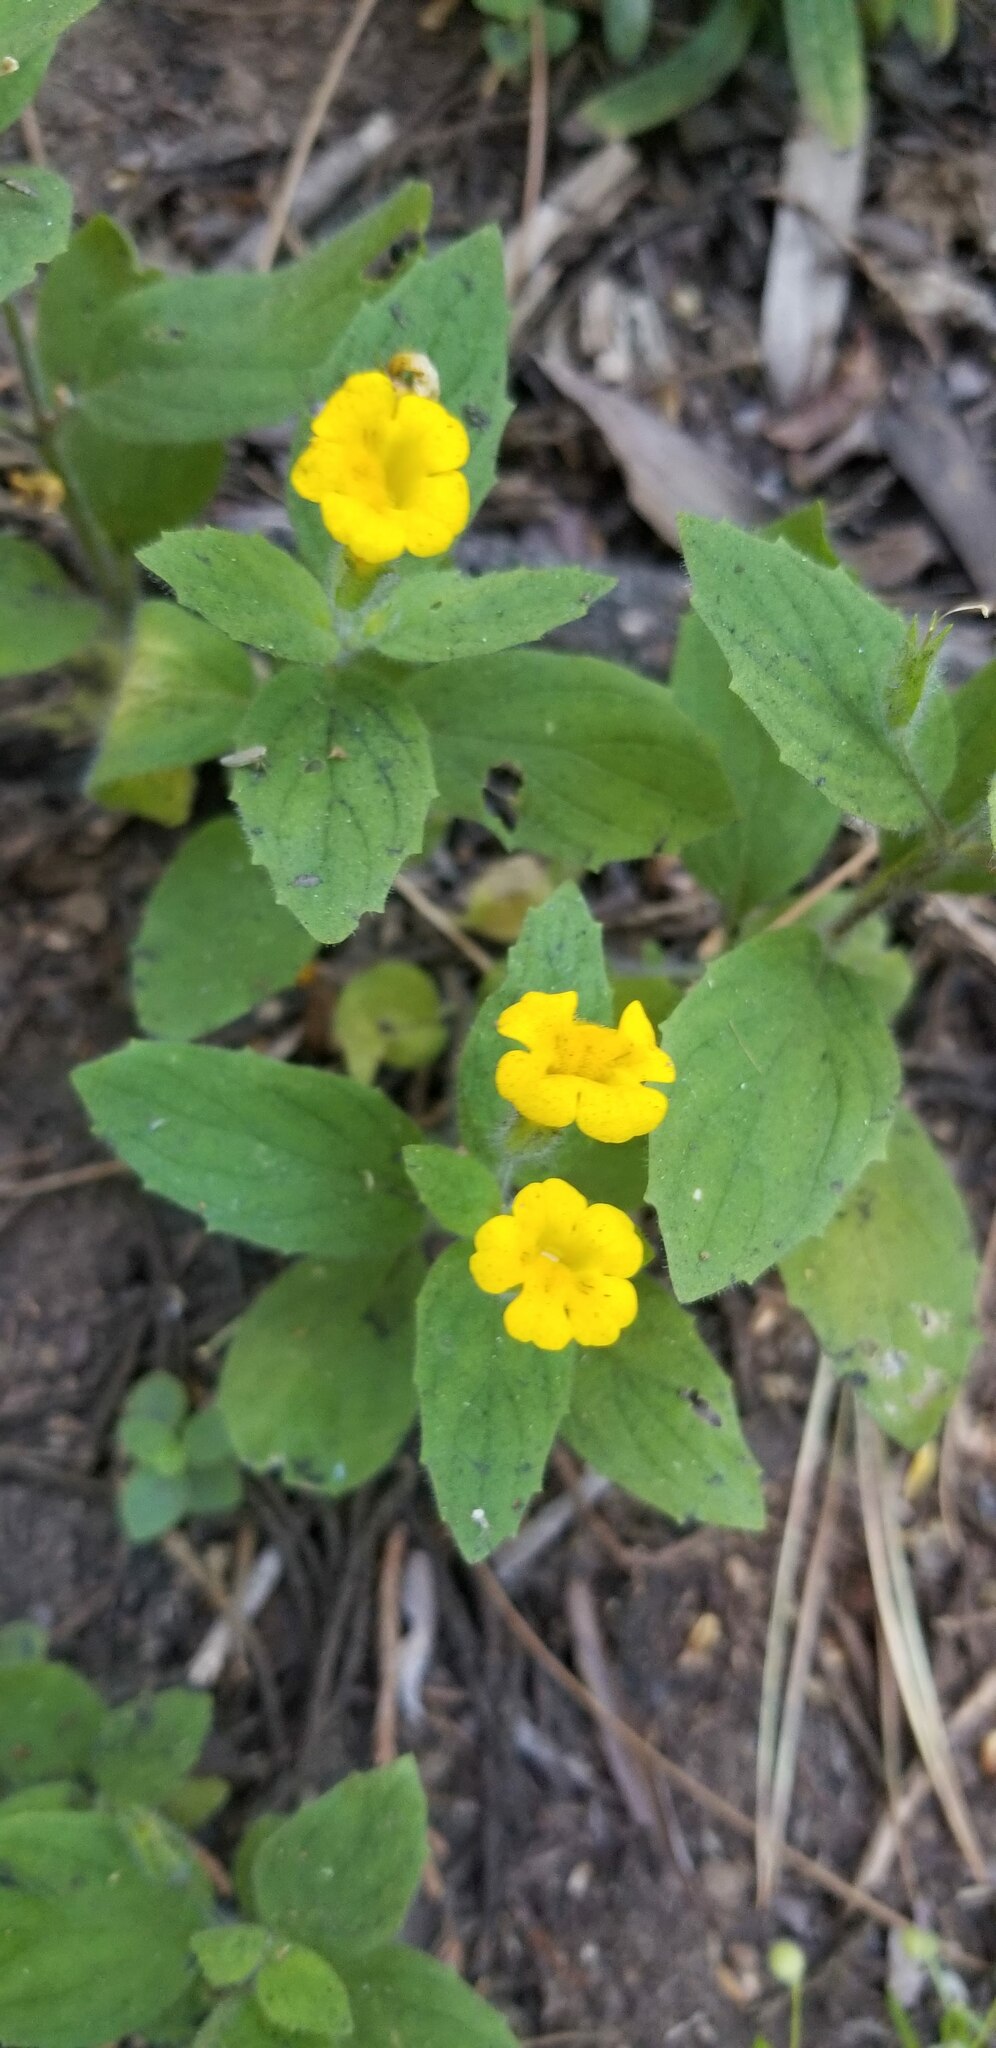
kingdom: Plantae
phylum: Tracheophyta
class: Magnoliopsida
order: Lamiales
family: Phrymaceae
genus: Erythranthe
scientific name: Erythranthe moschata
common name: Muskflower
